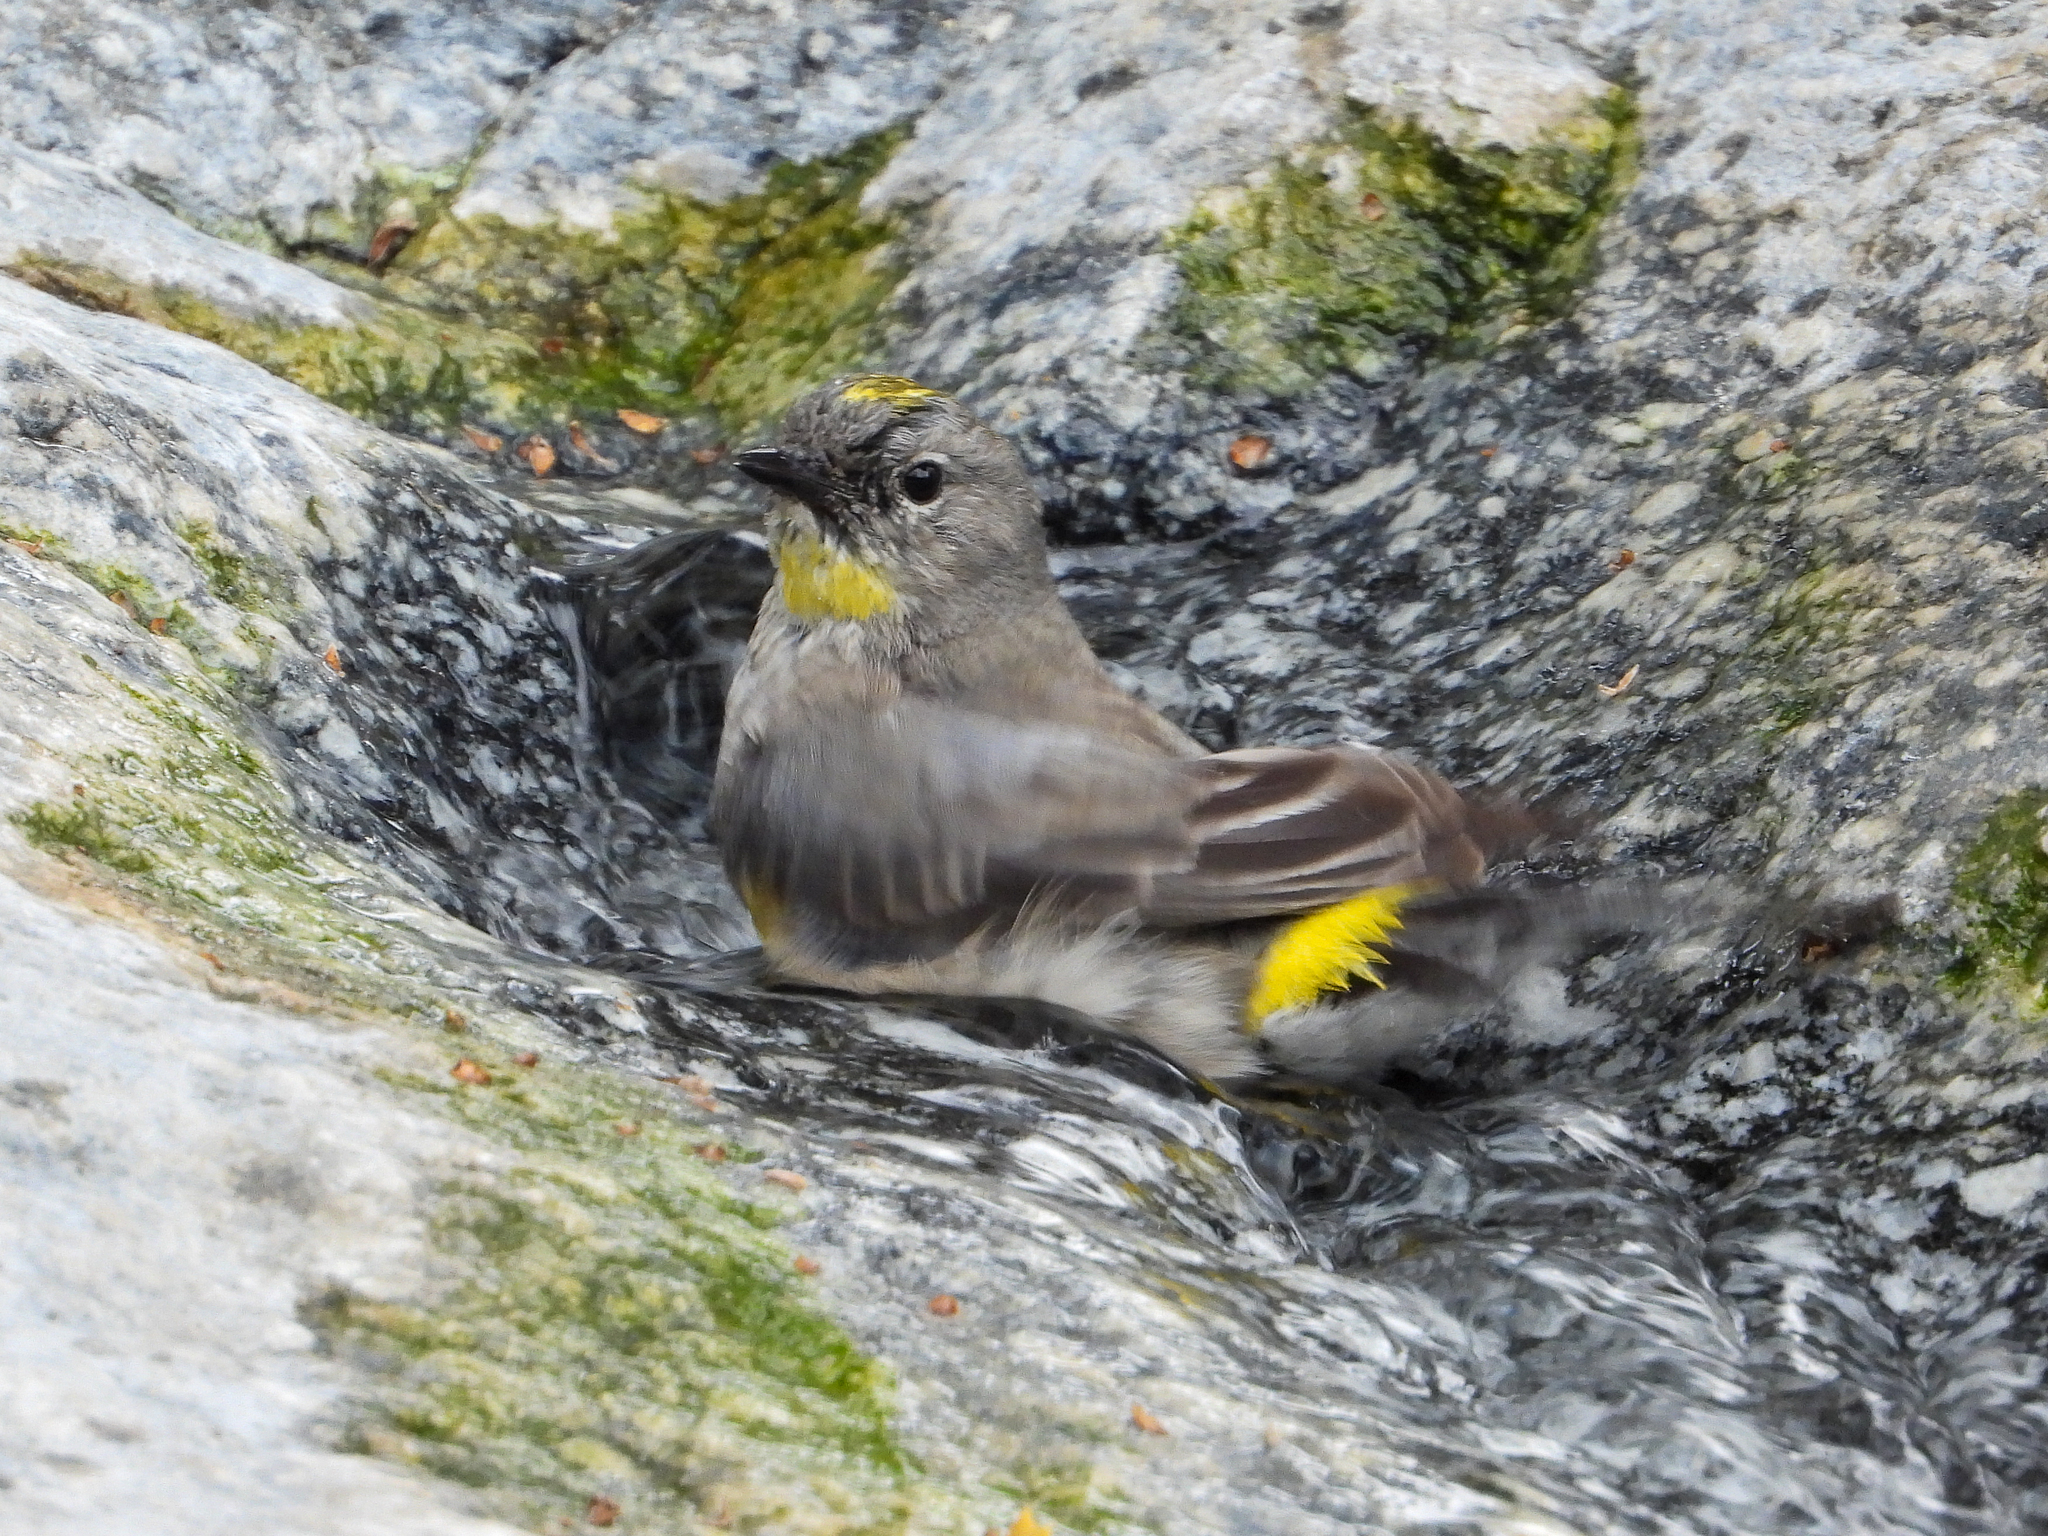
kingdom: Animalia
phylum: Chordata
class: Aves
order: Passeriformes
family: Parulidae
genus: Setophaga
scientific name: Setophaga coronata
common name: Myrtle warbler
